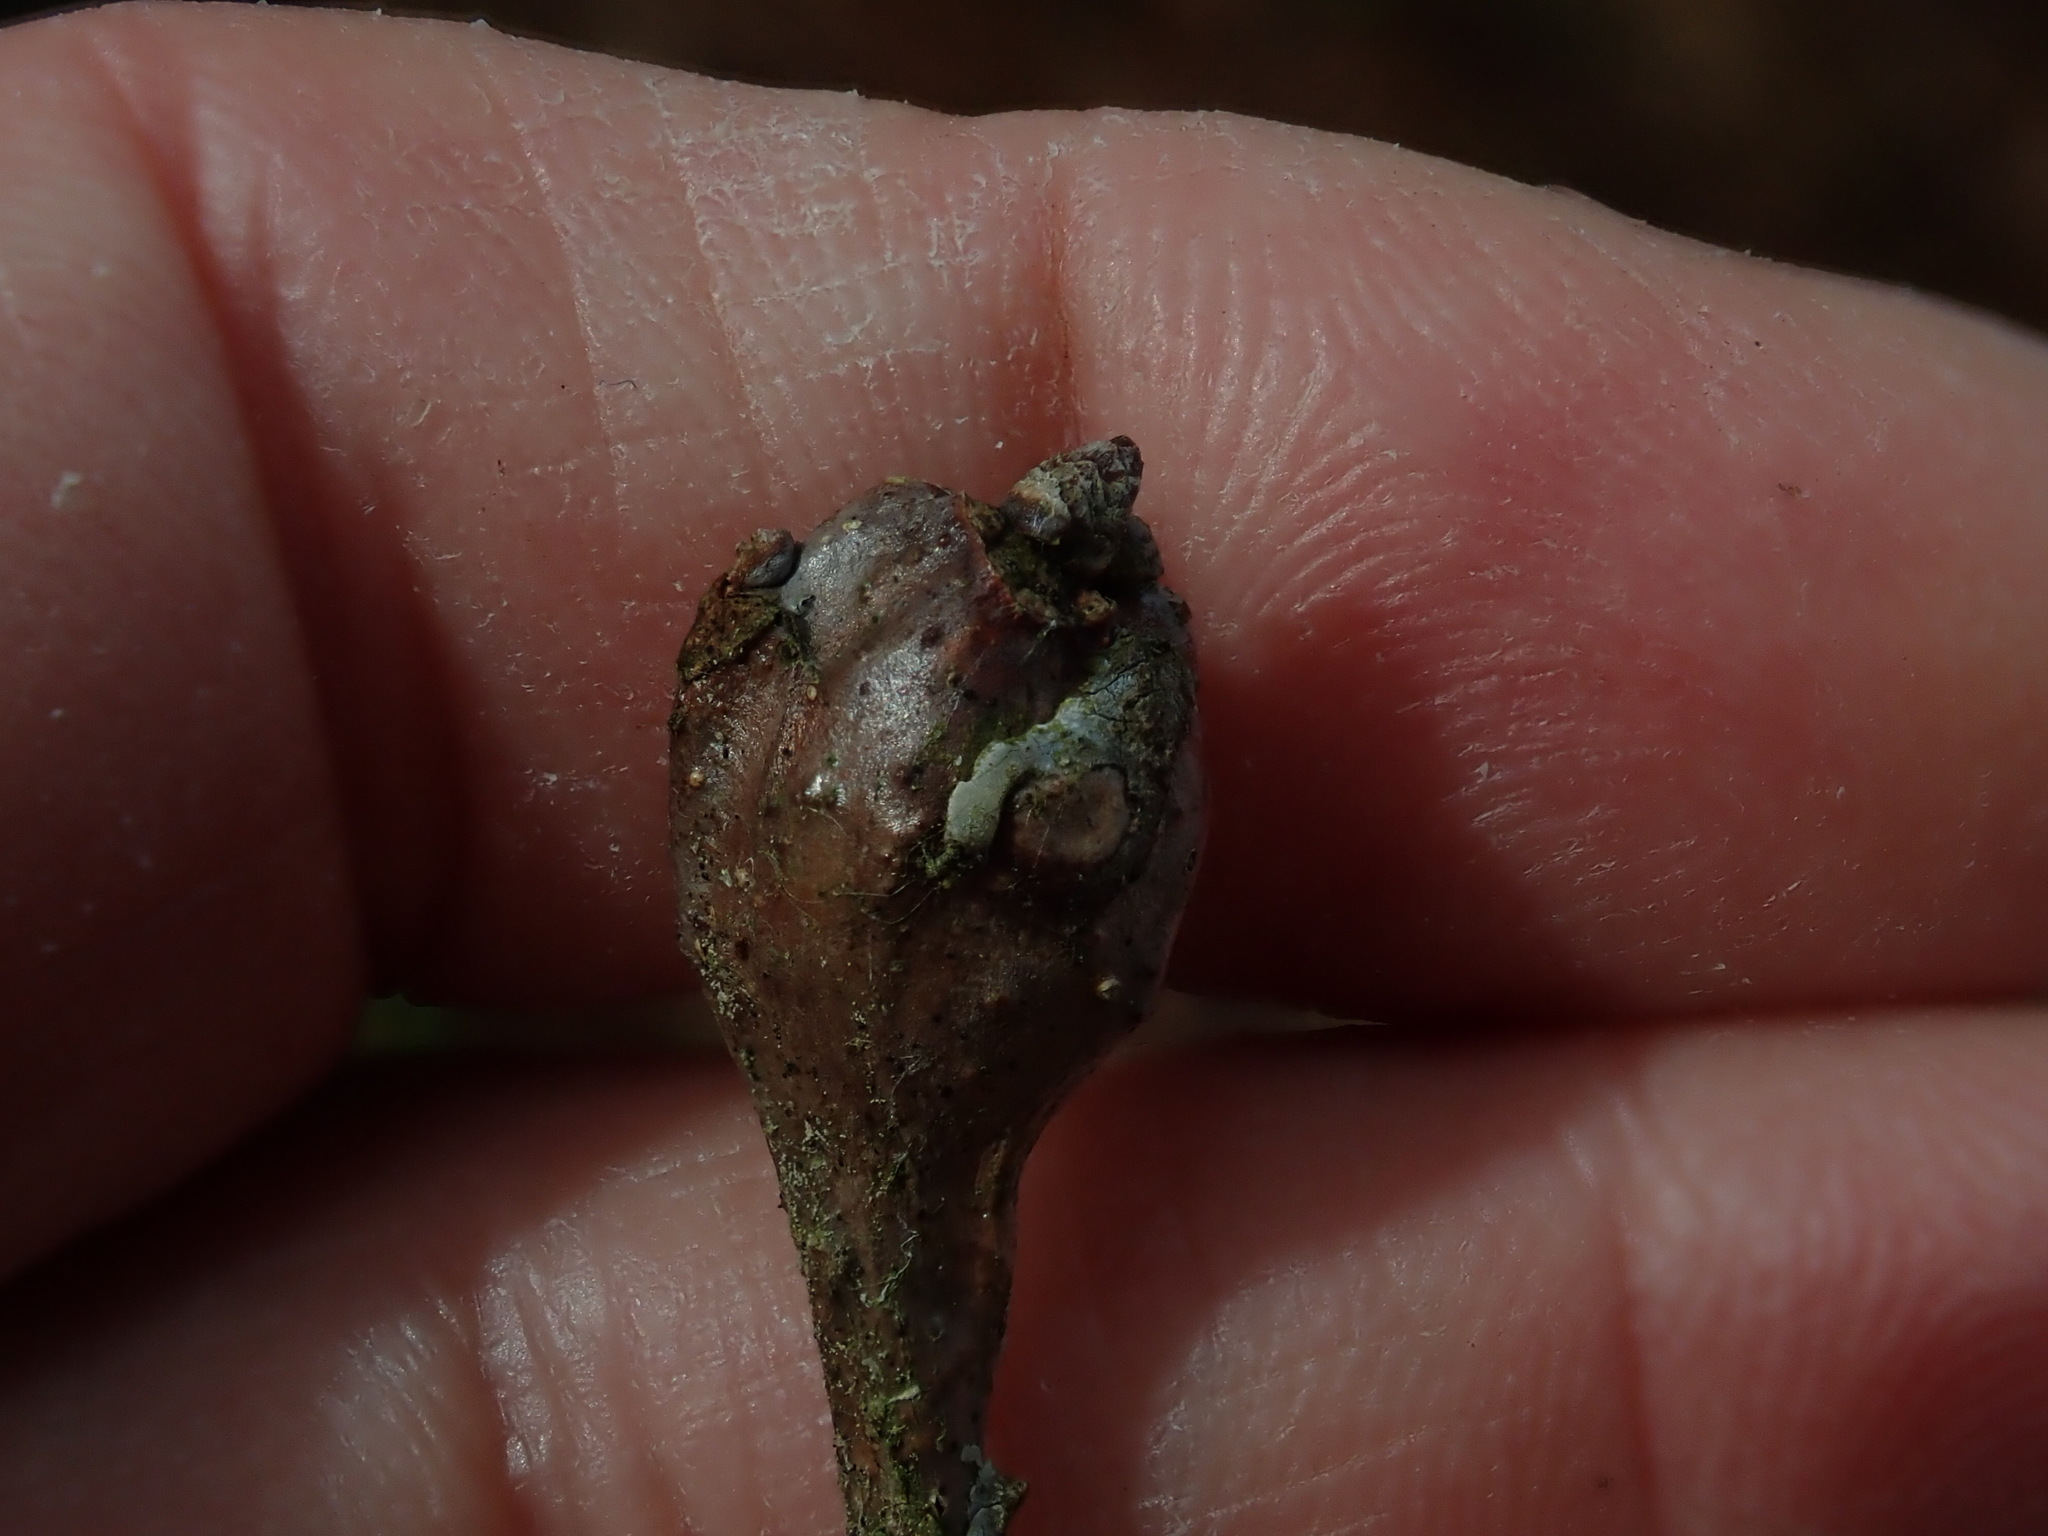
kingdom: Animalia
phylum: Arthropoda
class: Insecta
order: Hymenoptera
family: Cynipidae
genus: Callirhytis
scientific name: Callirhytis clavula
